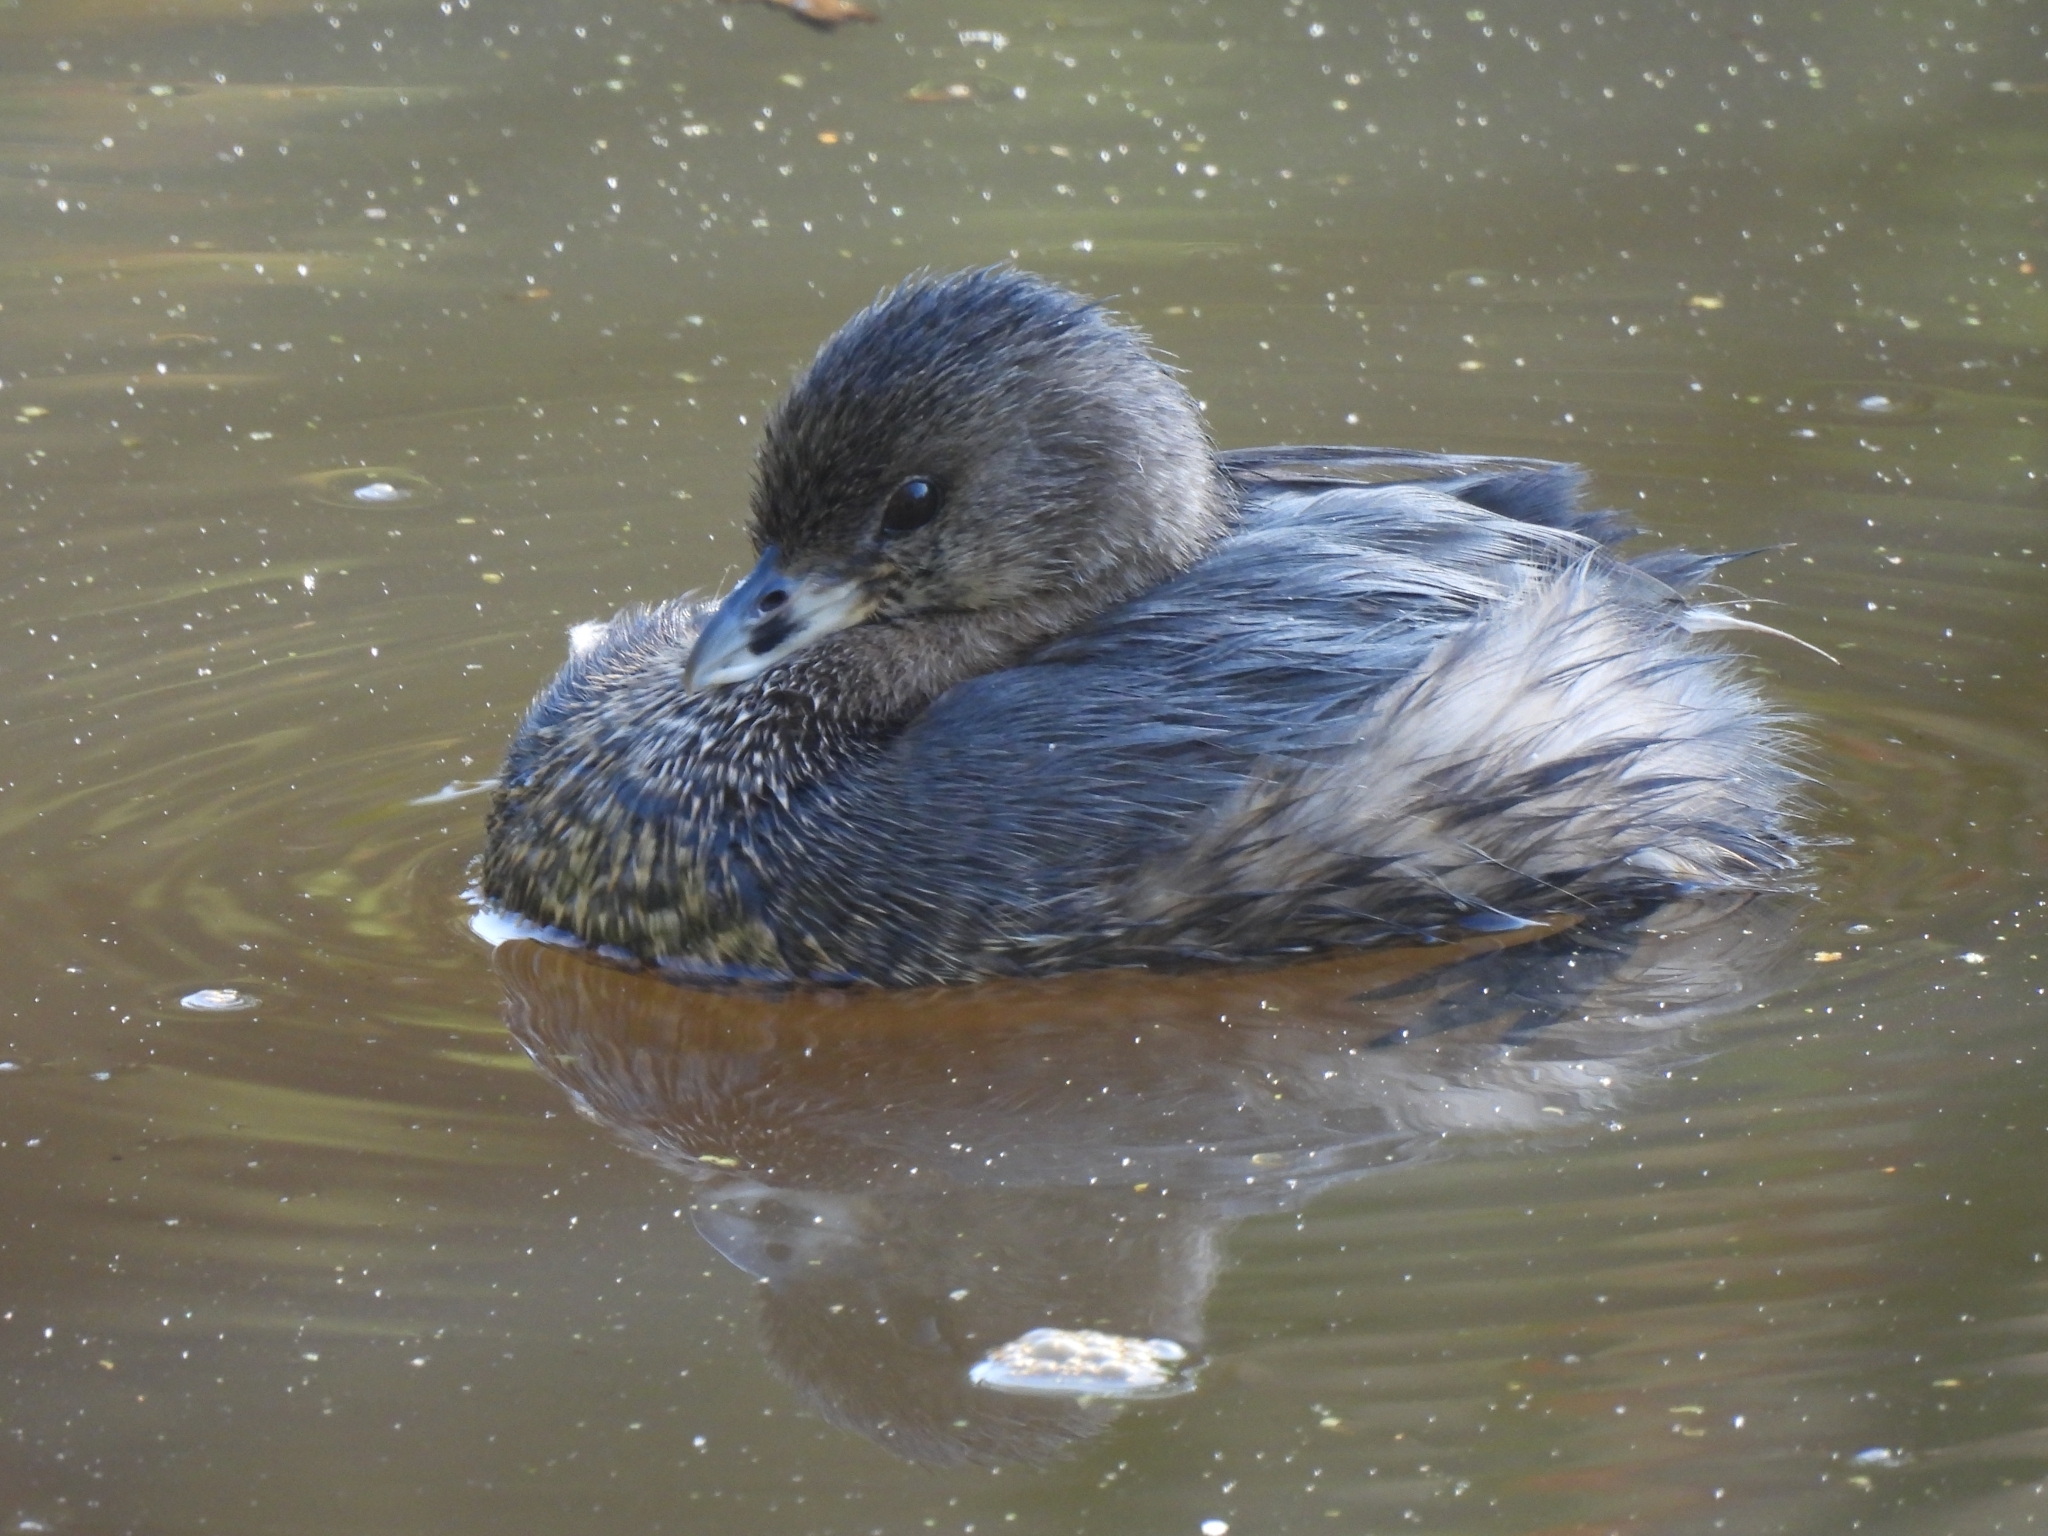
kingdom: Animalia
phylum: Chordata
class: Aves
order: Podicipediformes
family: Podicipedidae
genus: Podilymbus
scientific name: Podilymbus podiceps
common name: Pied-billed grebe
